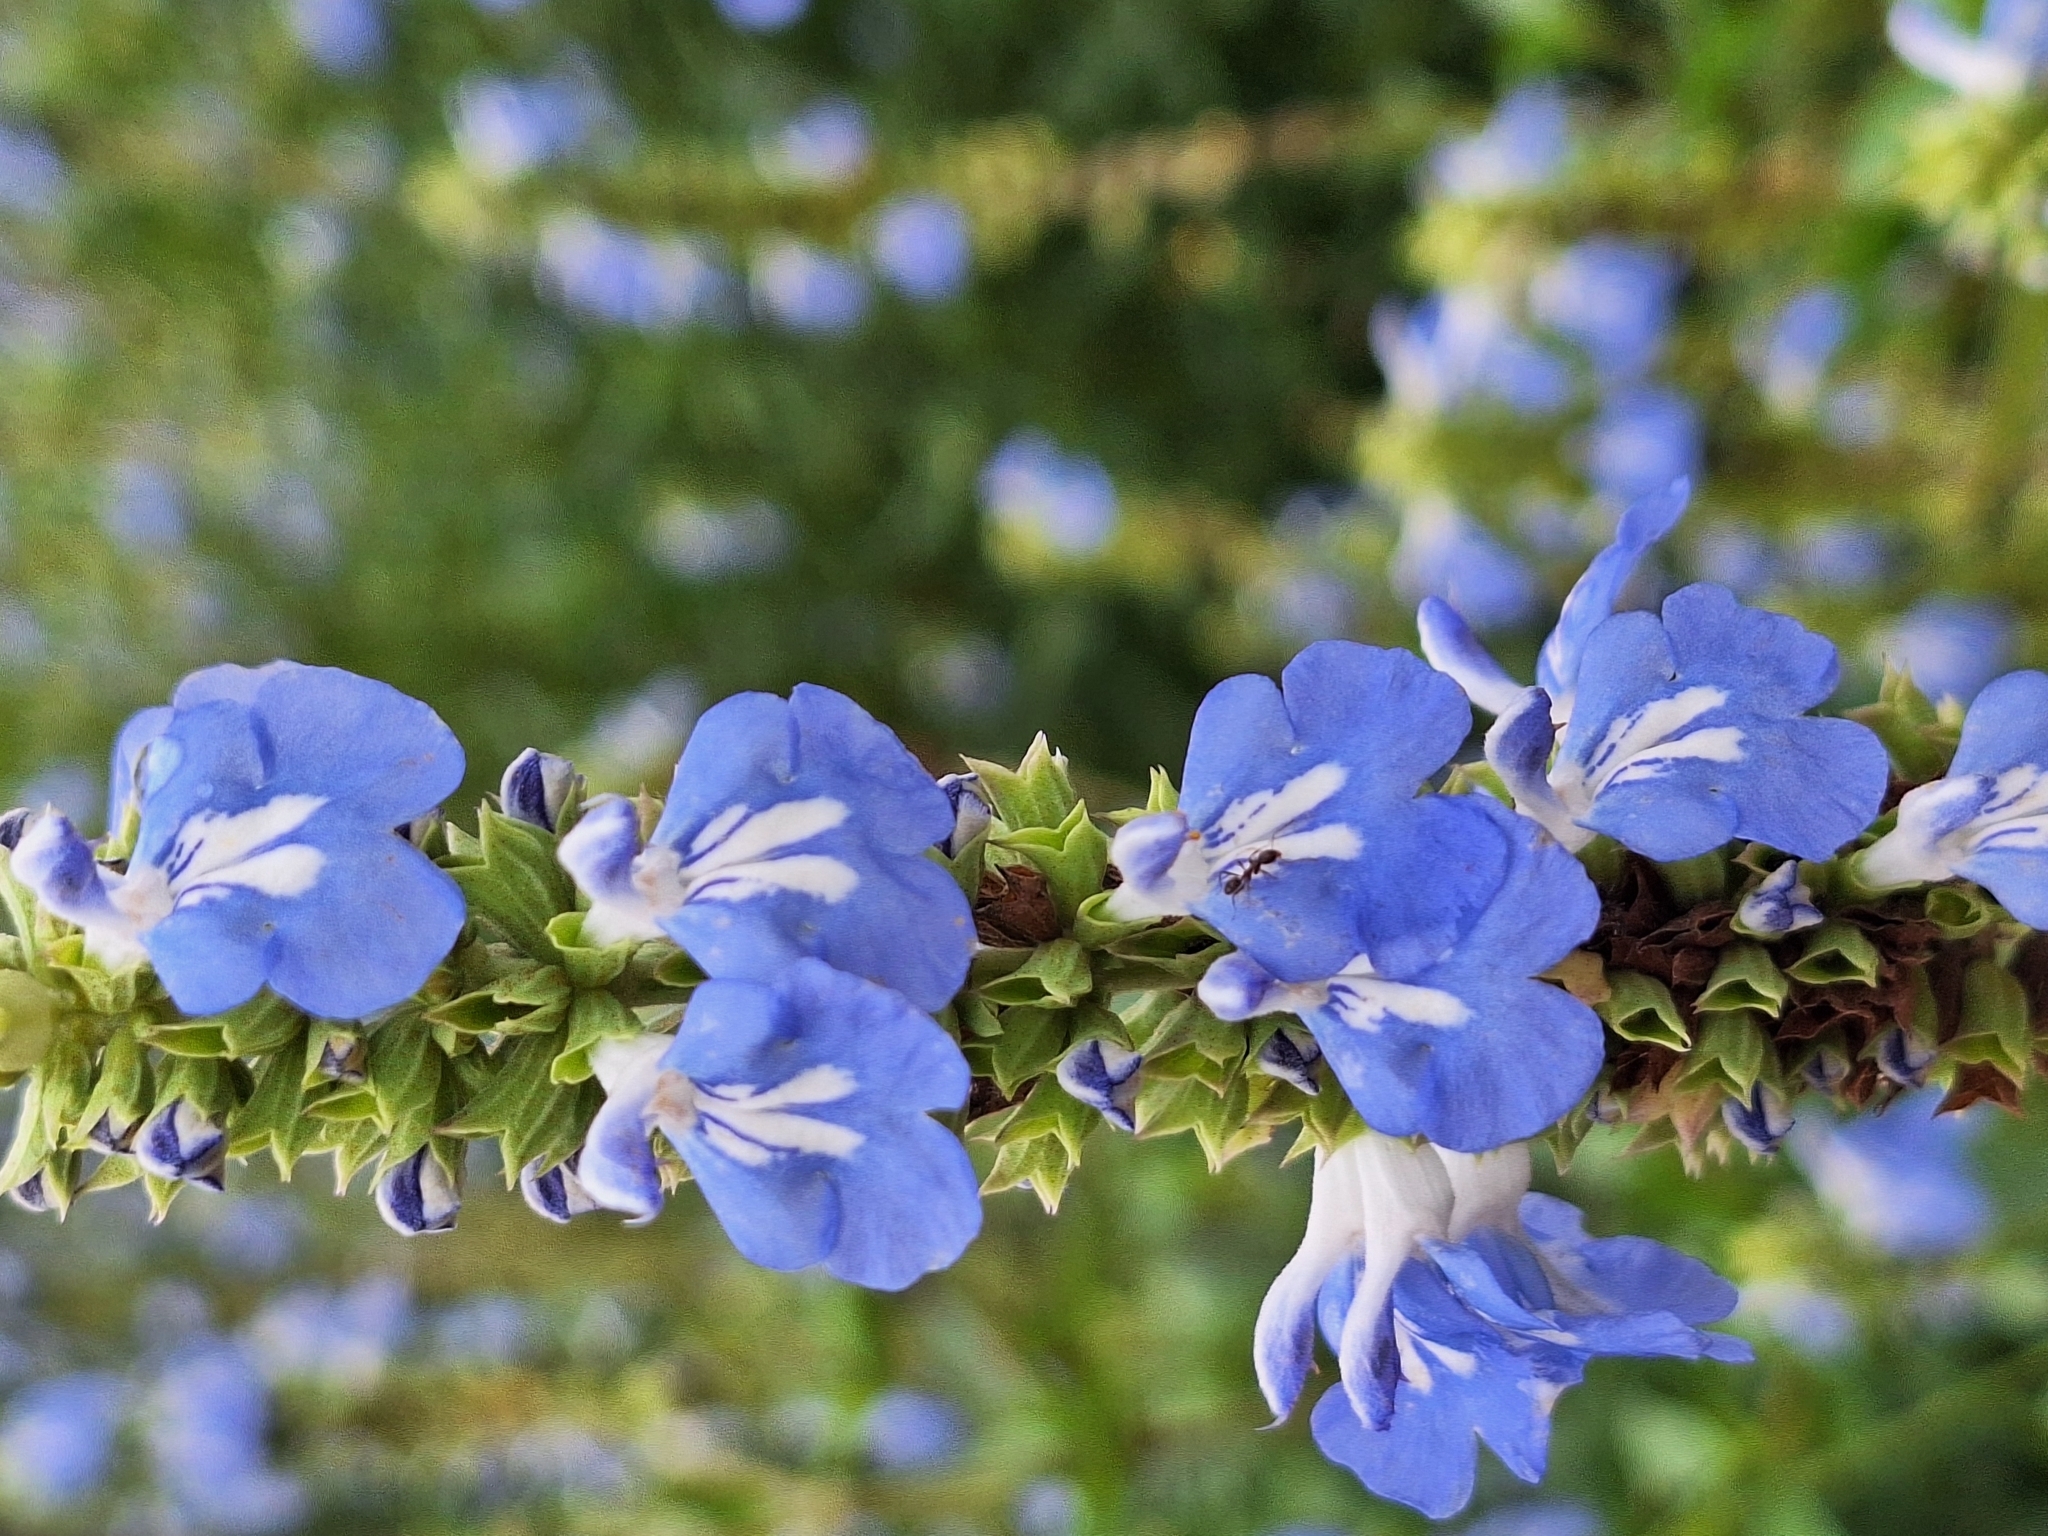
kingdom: Plantae
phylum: Tracheophyta
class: Magnoliopsida
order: Lamiales
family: Lamiaceae
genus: Salvia
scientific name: Salvia uliginosa
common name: Bog sage
